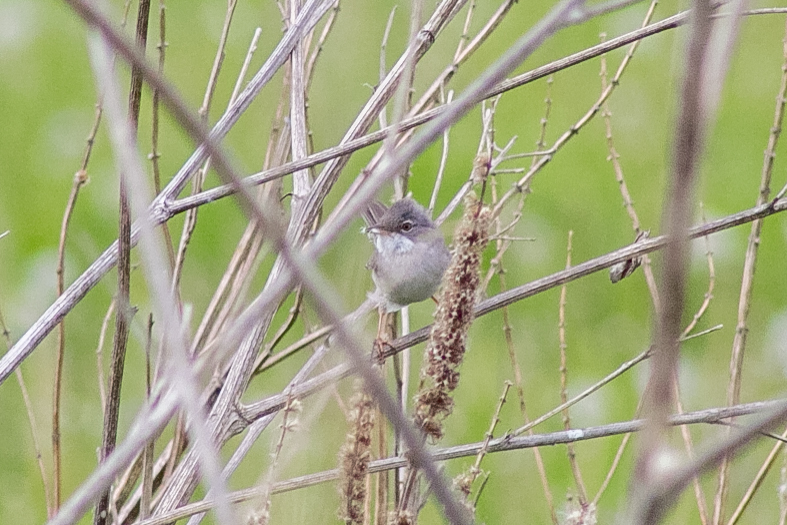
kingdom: Animalia
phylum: Chordata
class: Aves
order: Passeriformes
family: Sylviidae
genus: Sylvia
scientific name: Sylvia communis
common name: Common whitethroat
